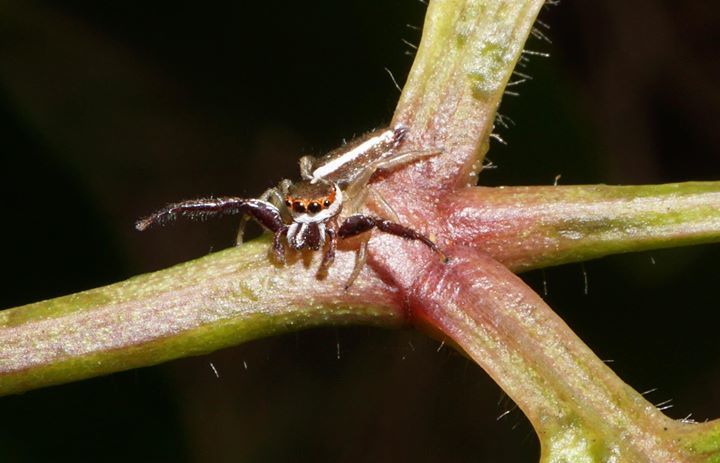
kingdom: Animalia
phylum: Arthropoda
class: Arachnida
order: Araneae
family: Salticidae
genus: Hentzia
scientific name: Hentzia palmarum
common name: Common hentz jumping spider
